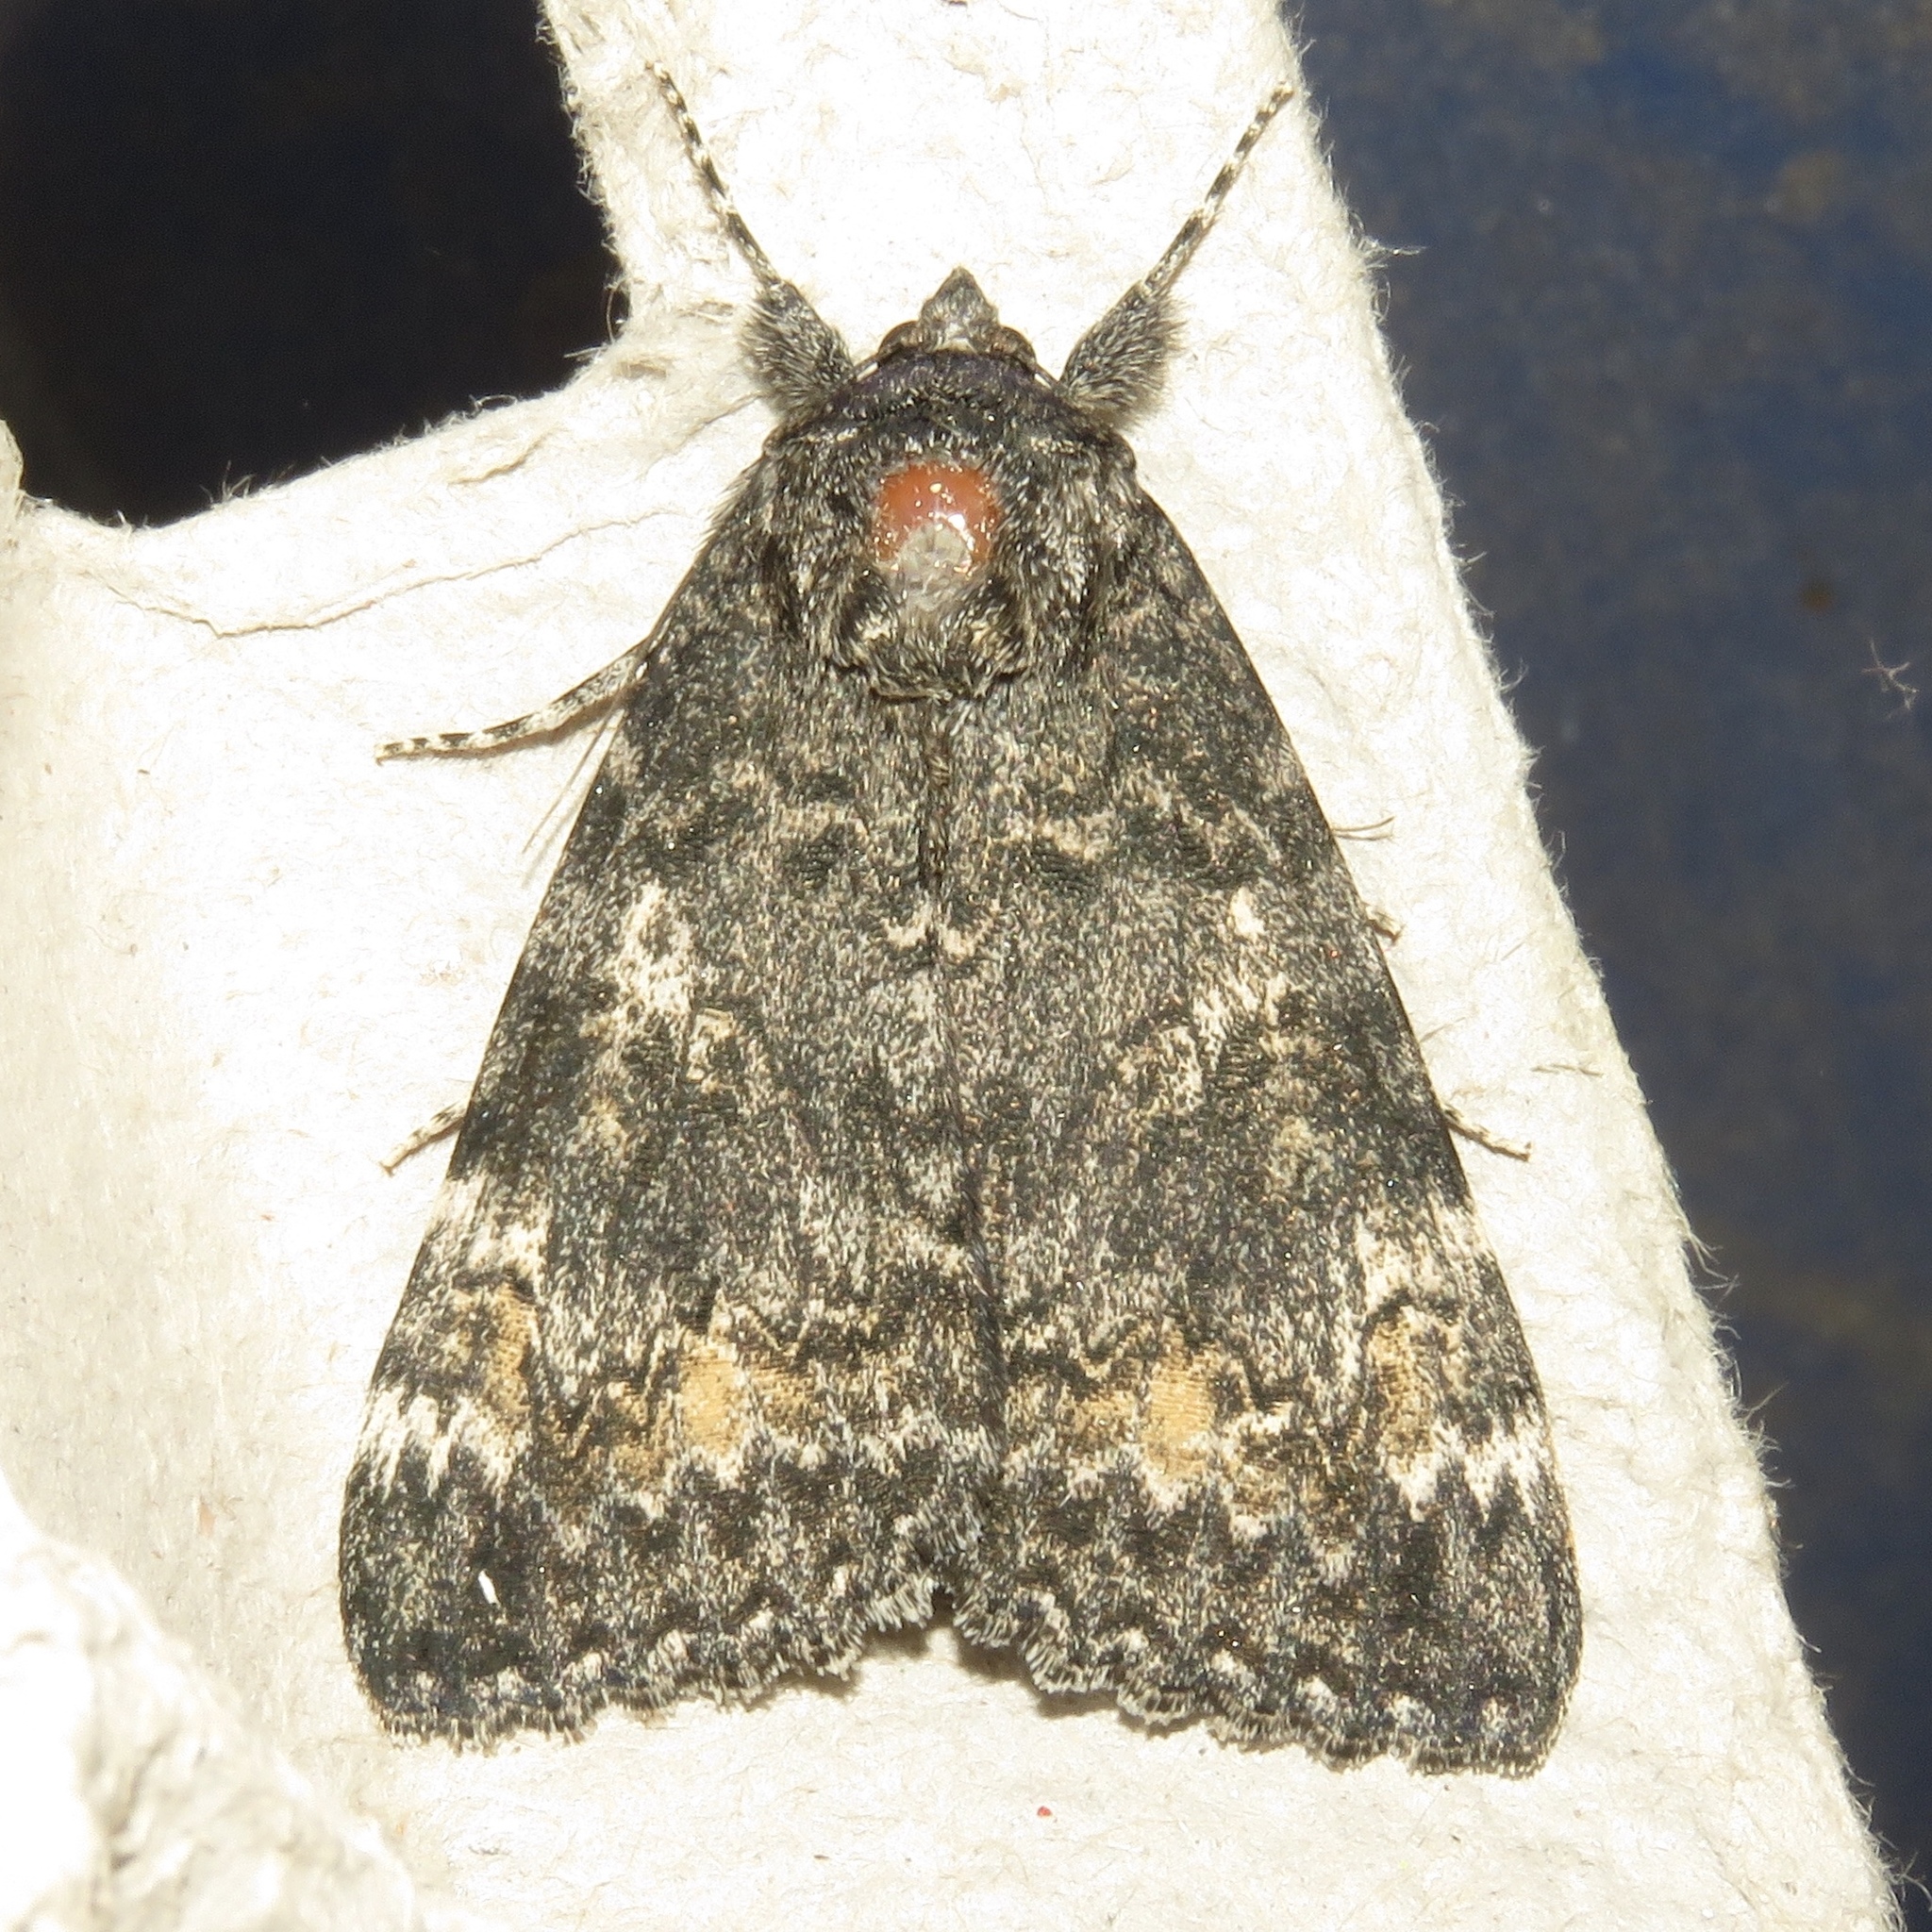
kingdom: Animalia
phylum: Arthropoda
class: Insecta
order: Lepidoptera
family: Erebidae
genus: Catocala
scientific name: Catocala briseis
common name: Briseis underwing
